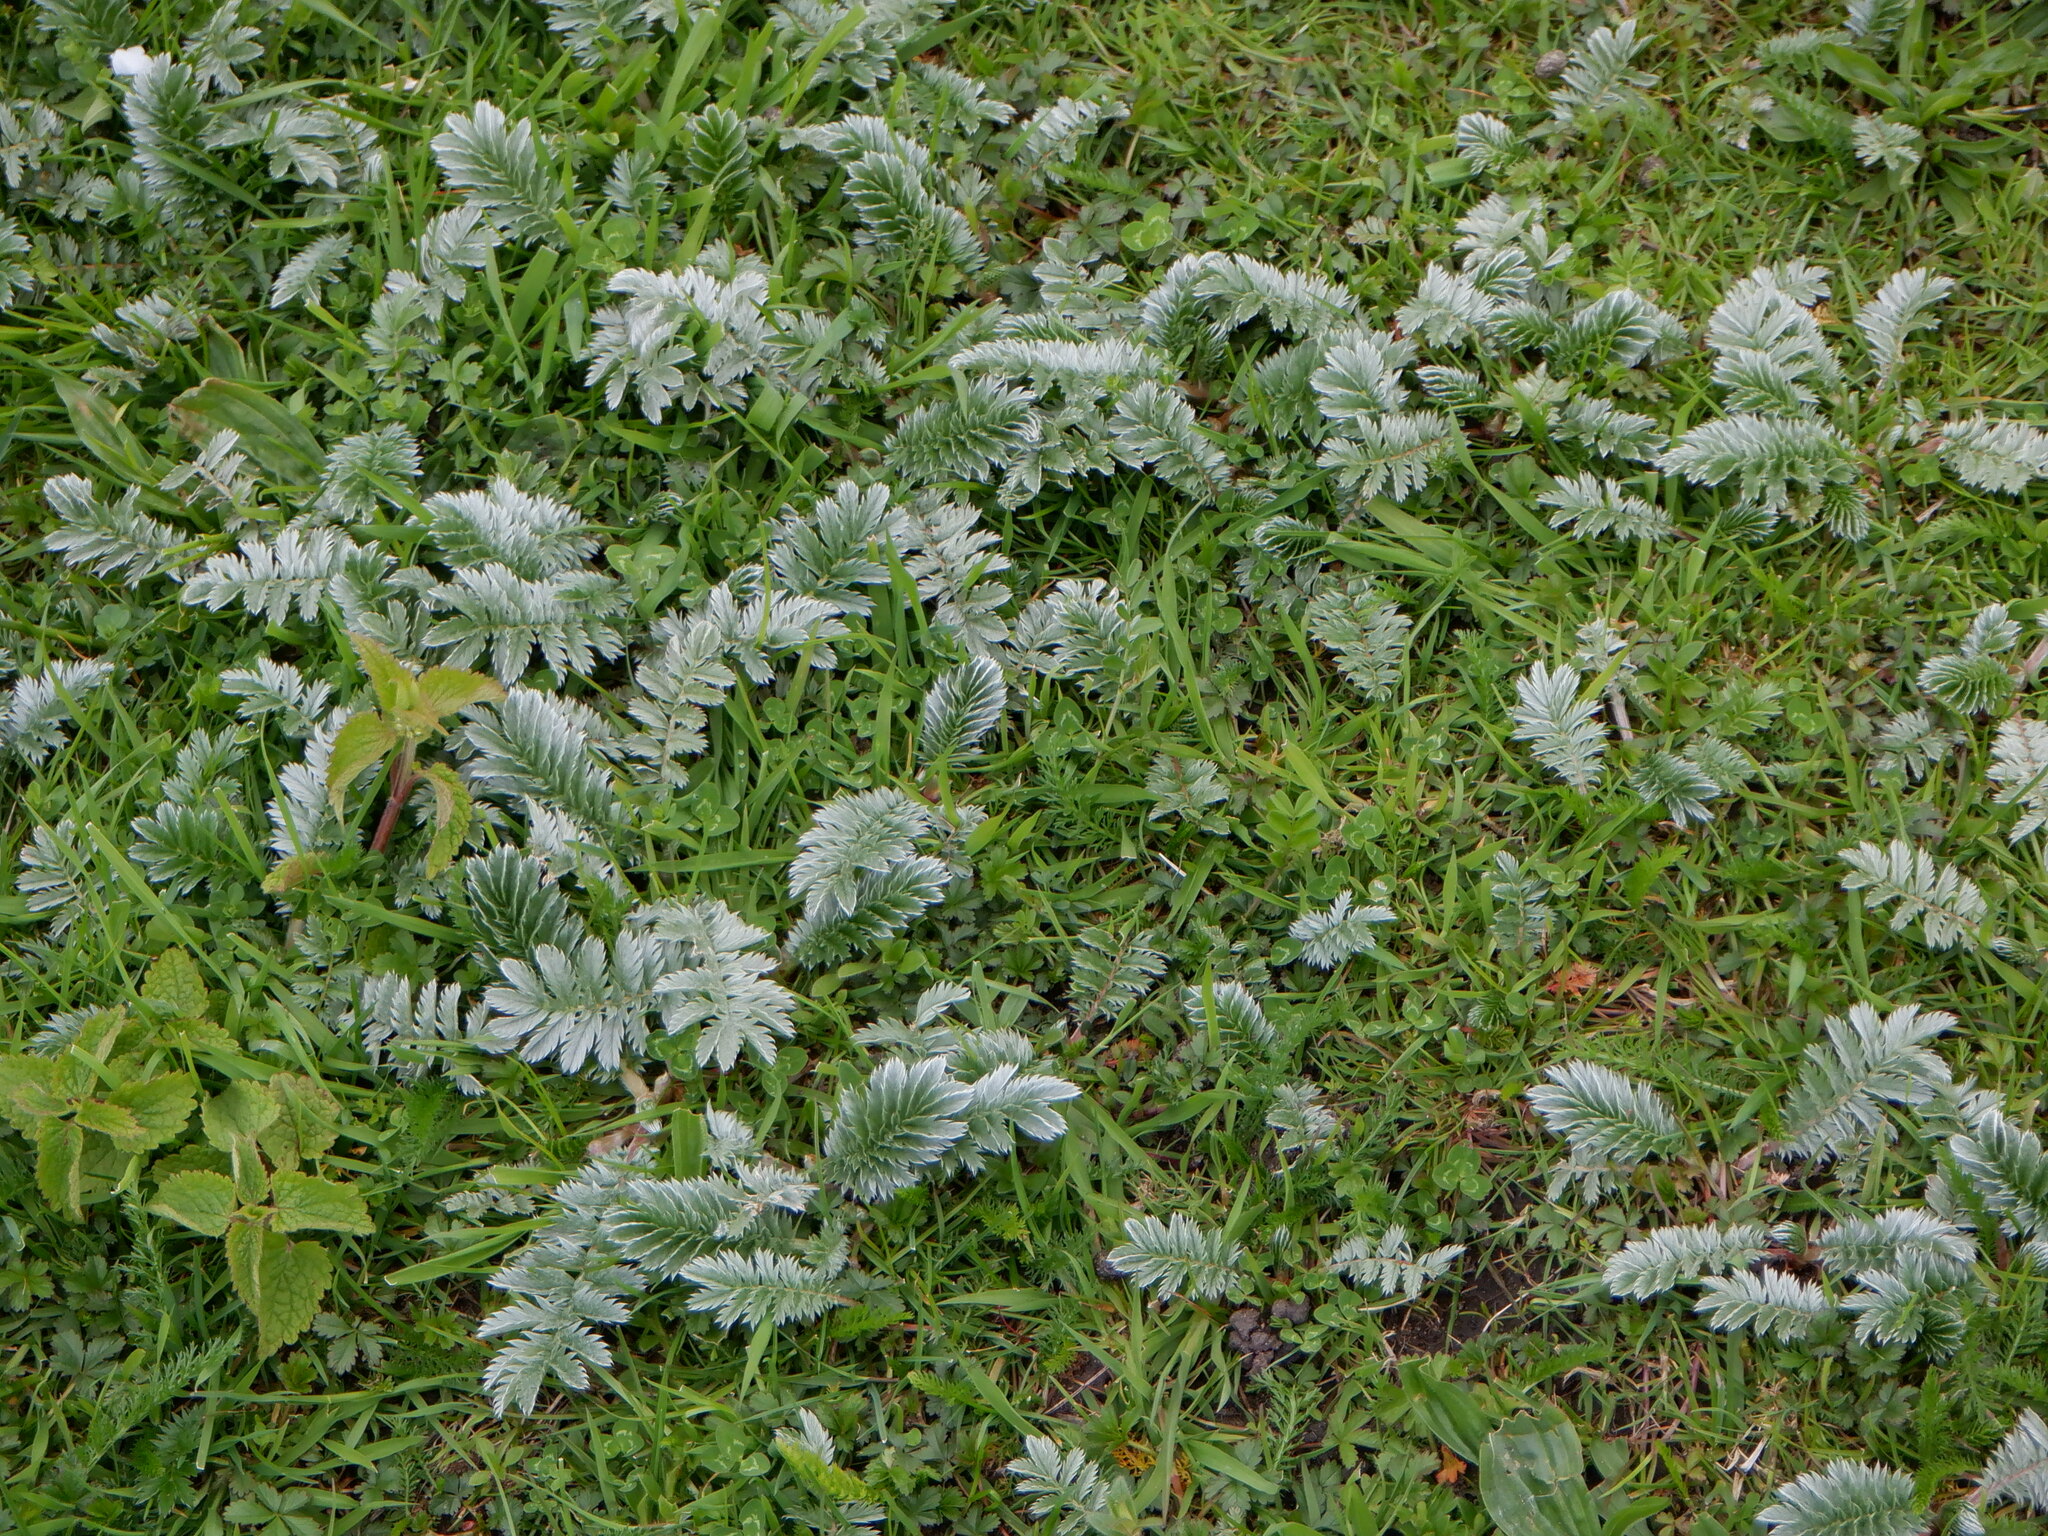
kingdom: Plantae
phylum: Tracheophyta
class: Magnoliopsida
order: Rosales
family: Rosaceae
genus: Argentina
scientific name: Argentina anserina
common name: Common silverweed
